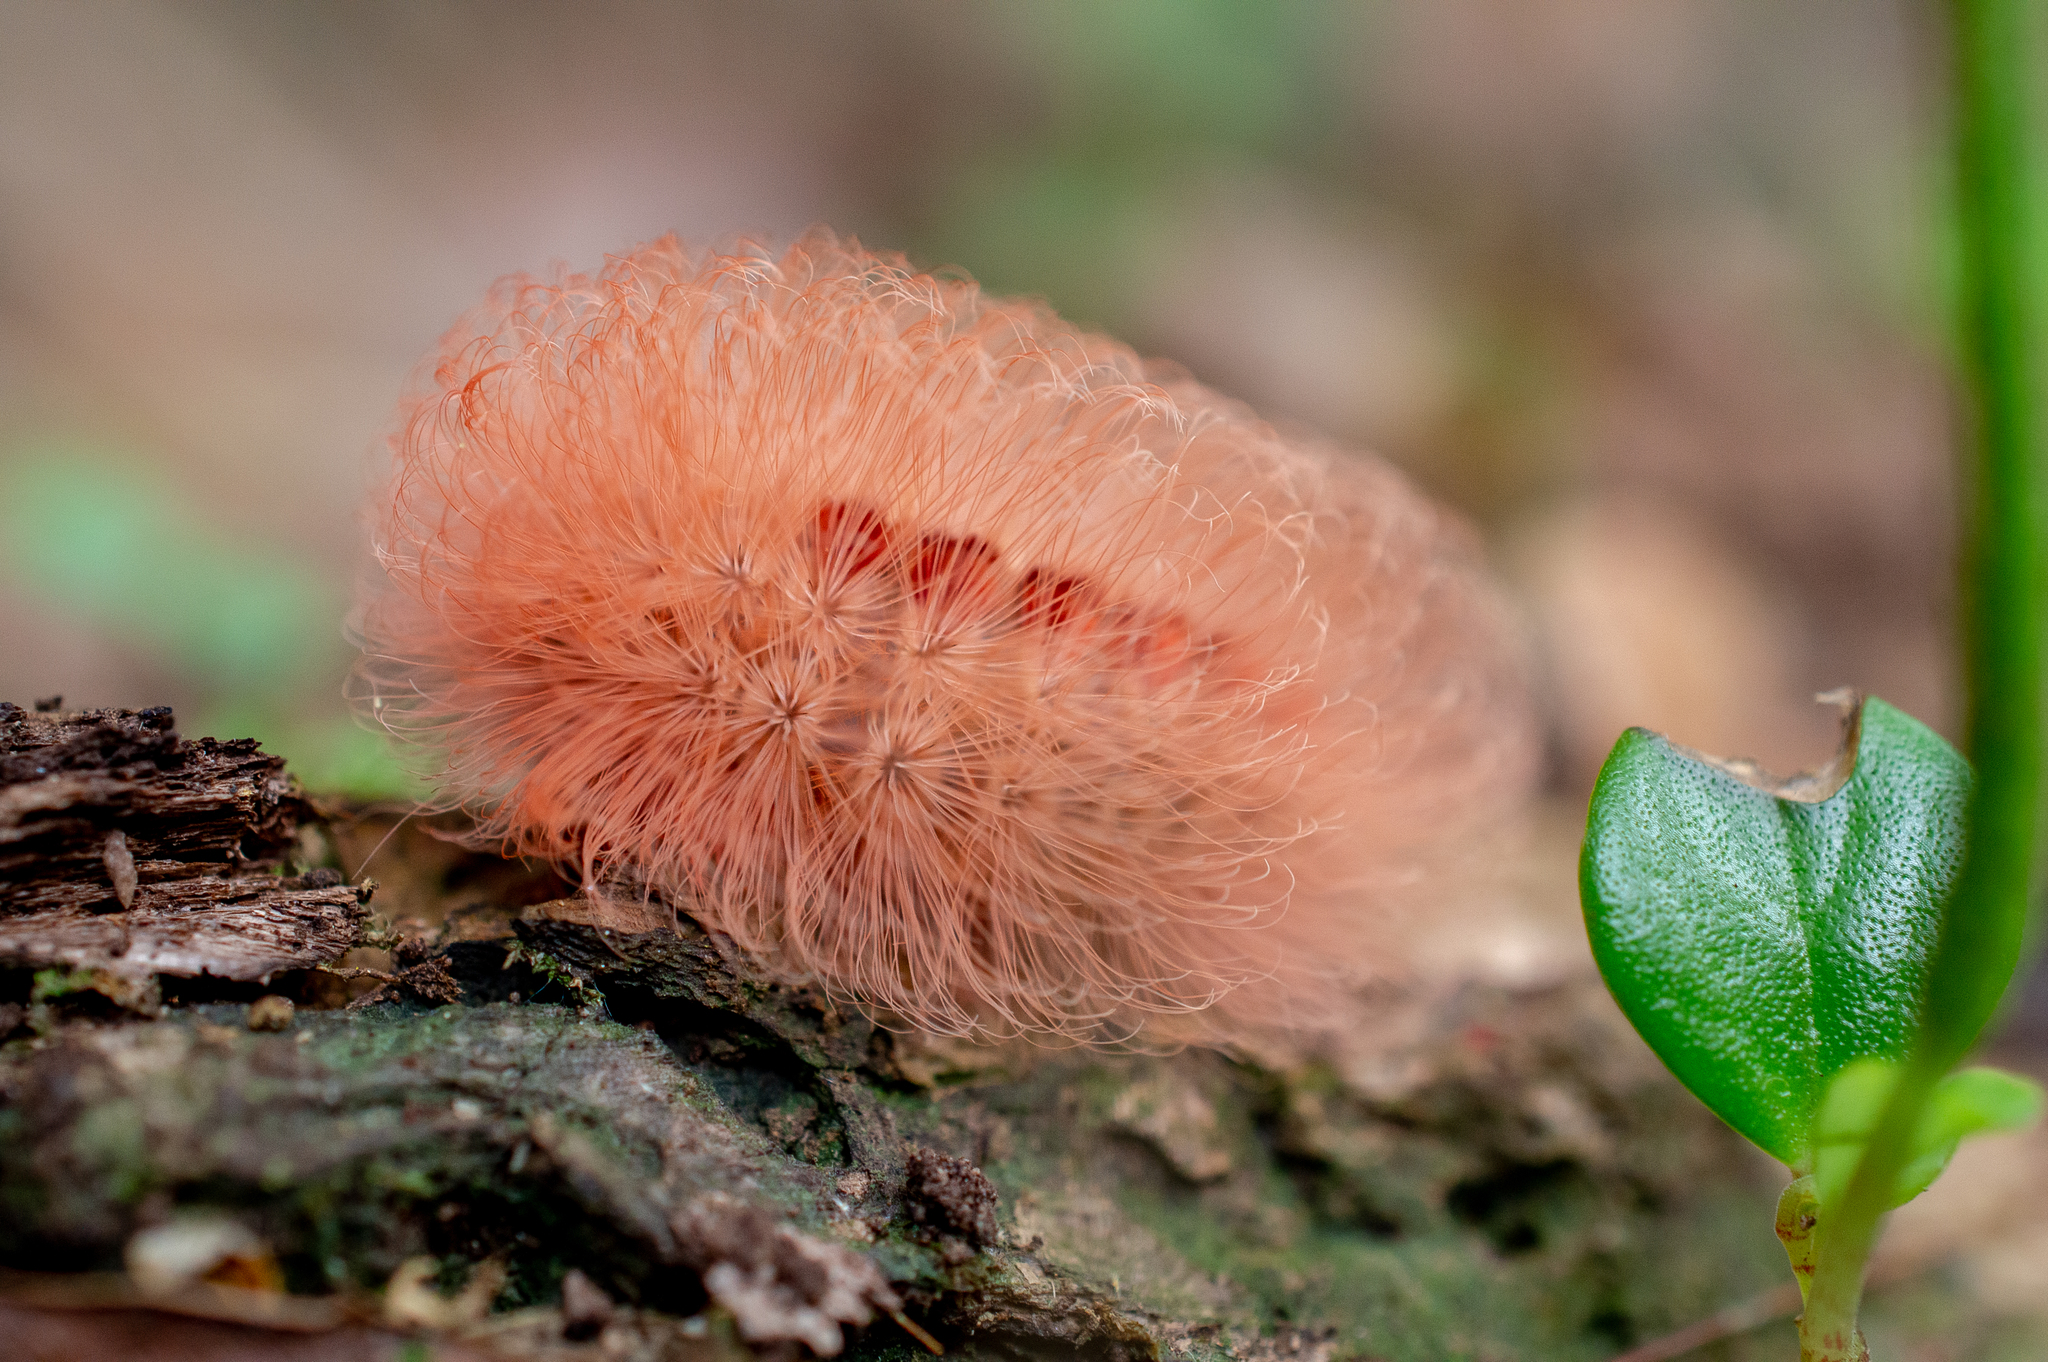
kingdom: Animalia
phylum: Arthropoda
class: Insecta
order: Lepidoptera
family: Megalopygidae
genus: Megalopyge
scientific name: Megalopyge basalis
